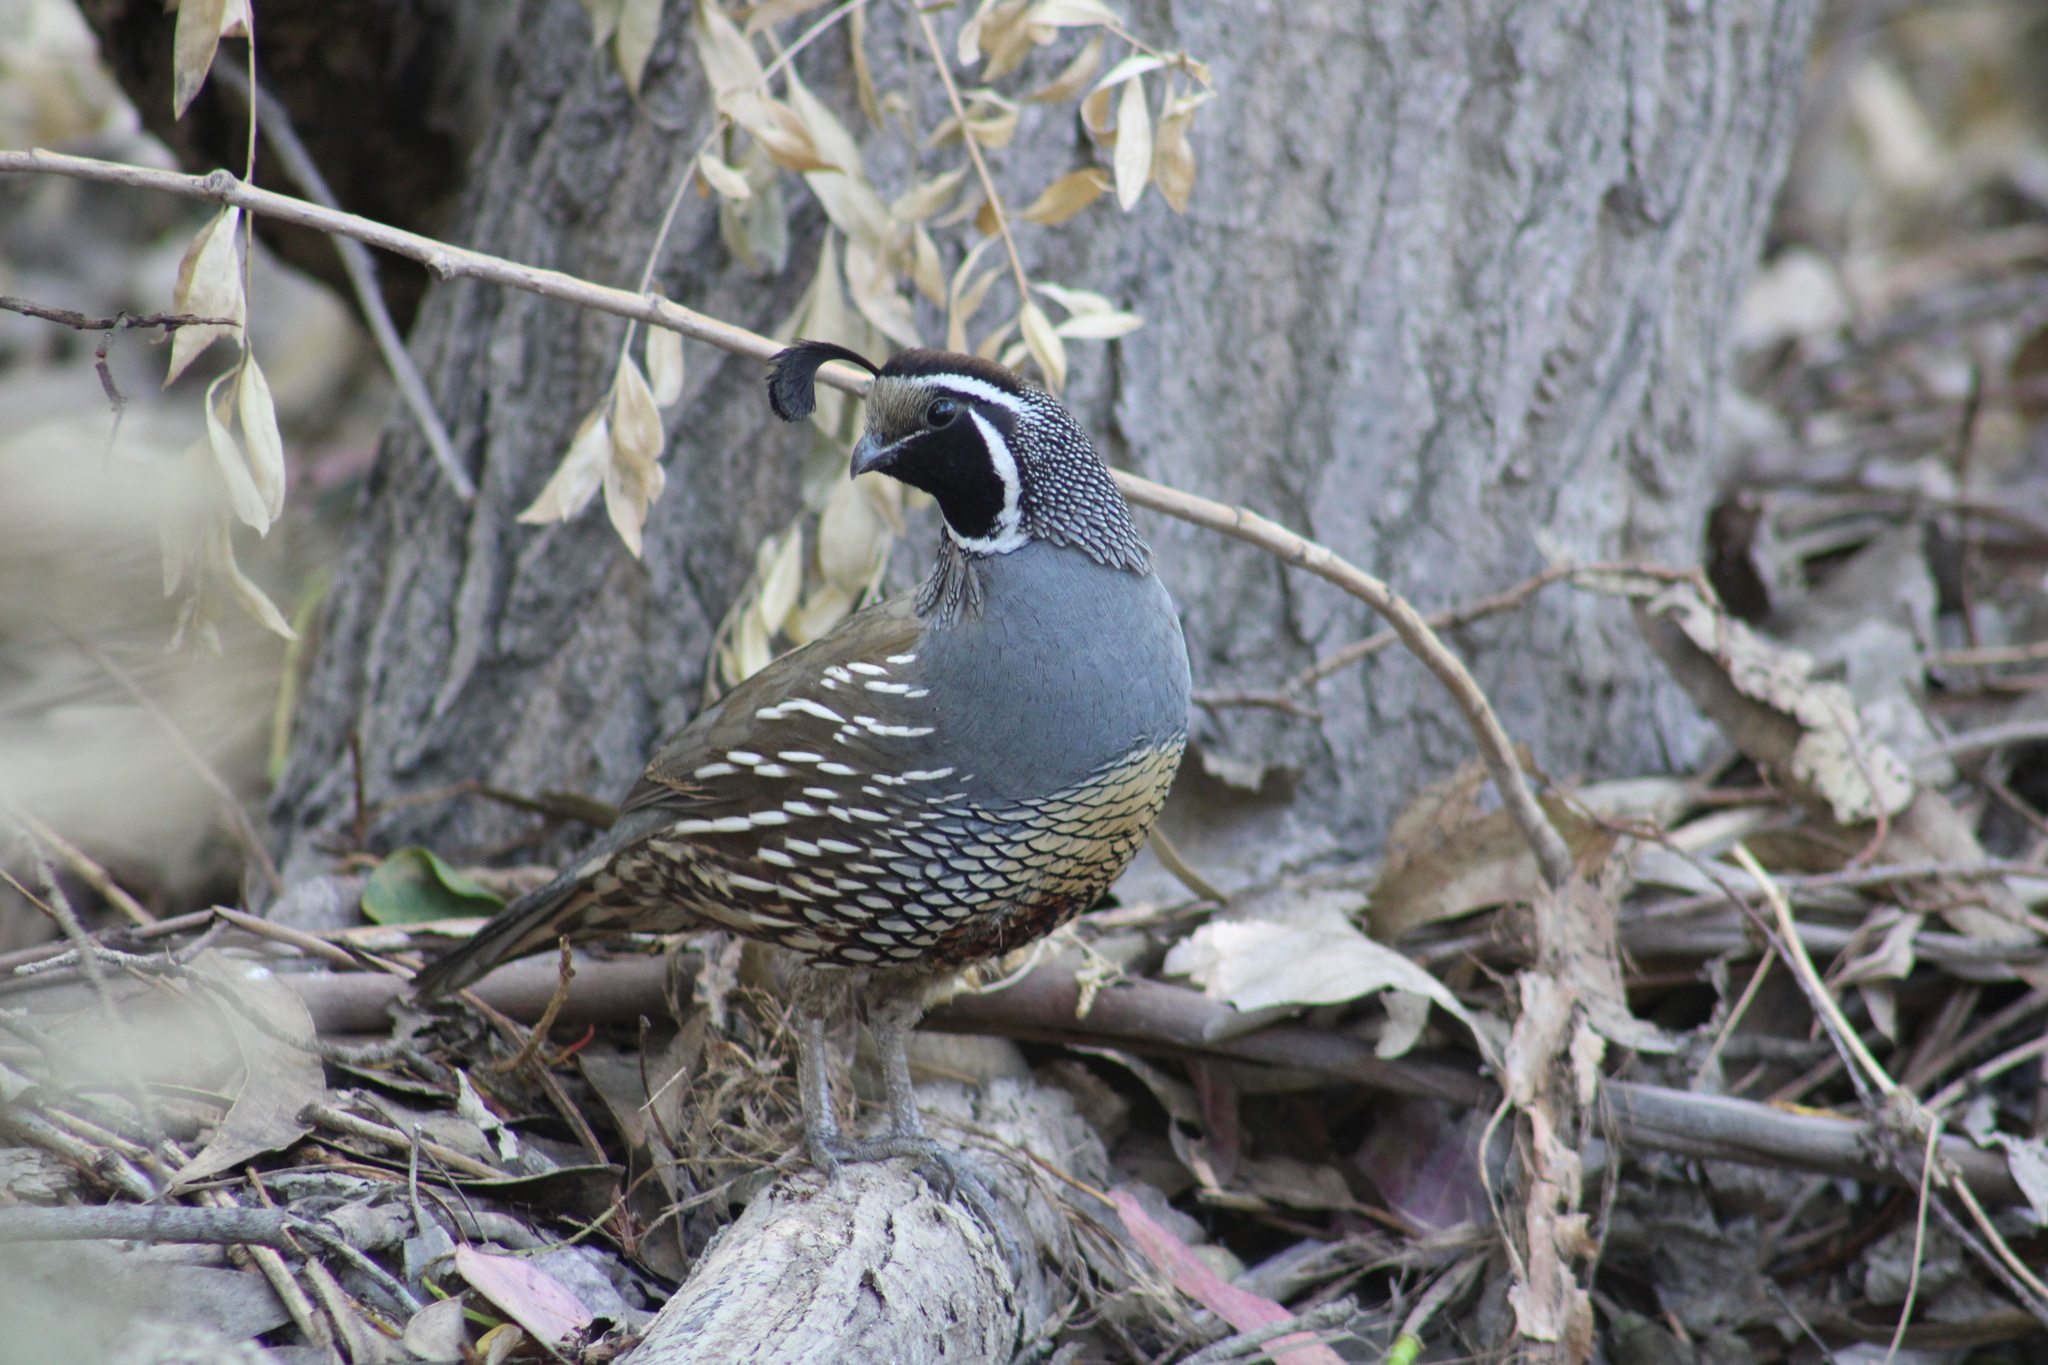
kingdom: Animalia
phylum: Chordata
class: Aves
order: Galliformes
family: Odontophoridae
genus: Callipepla
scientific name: Callipepla californica
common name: California quail
